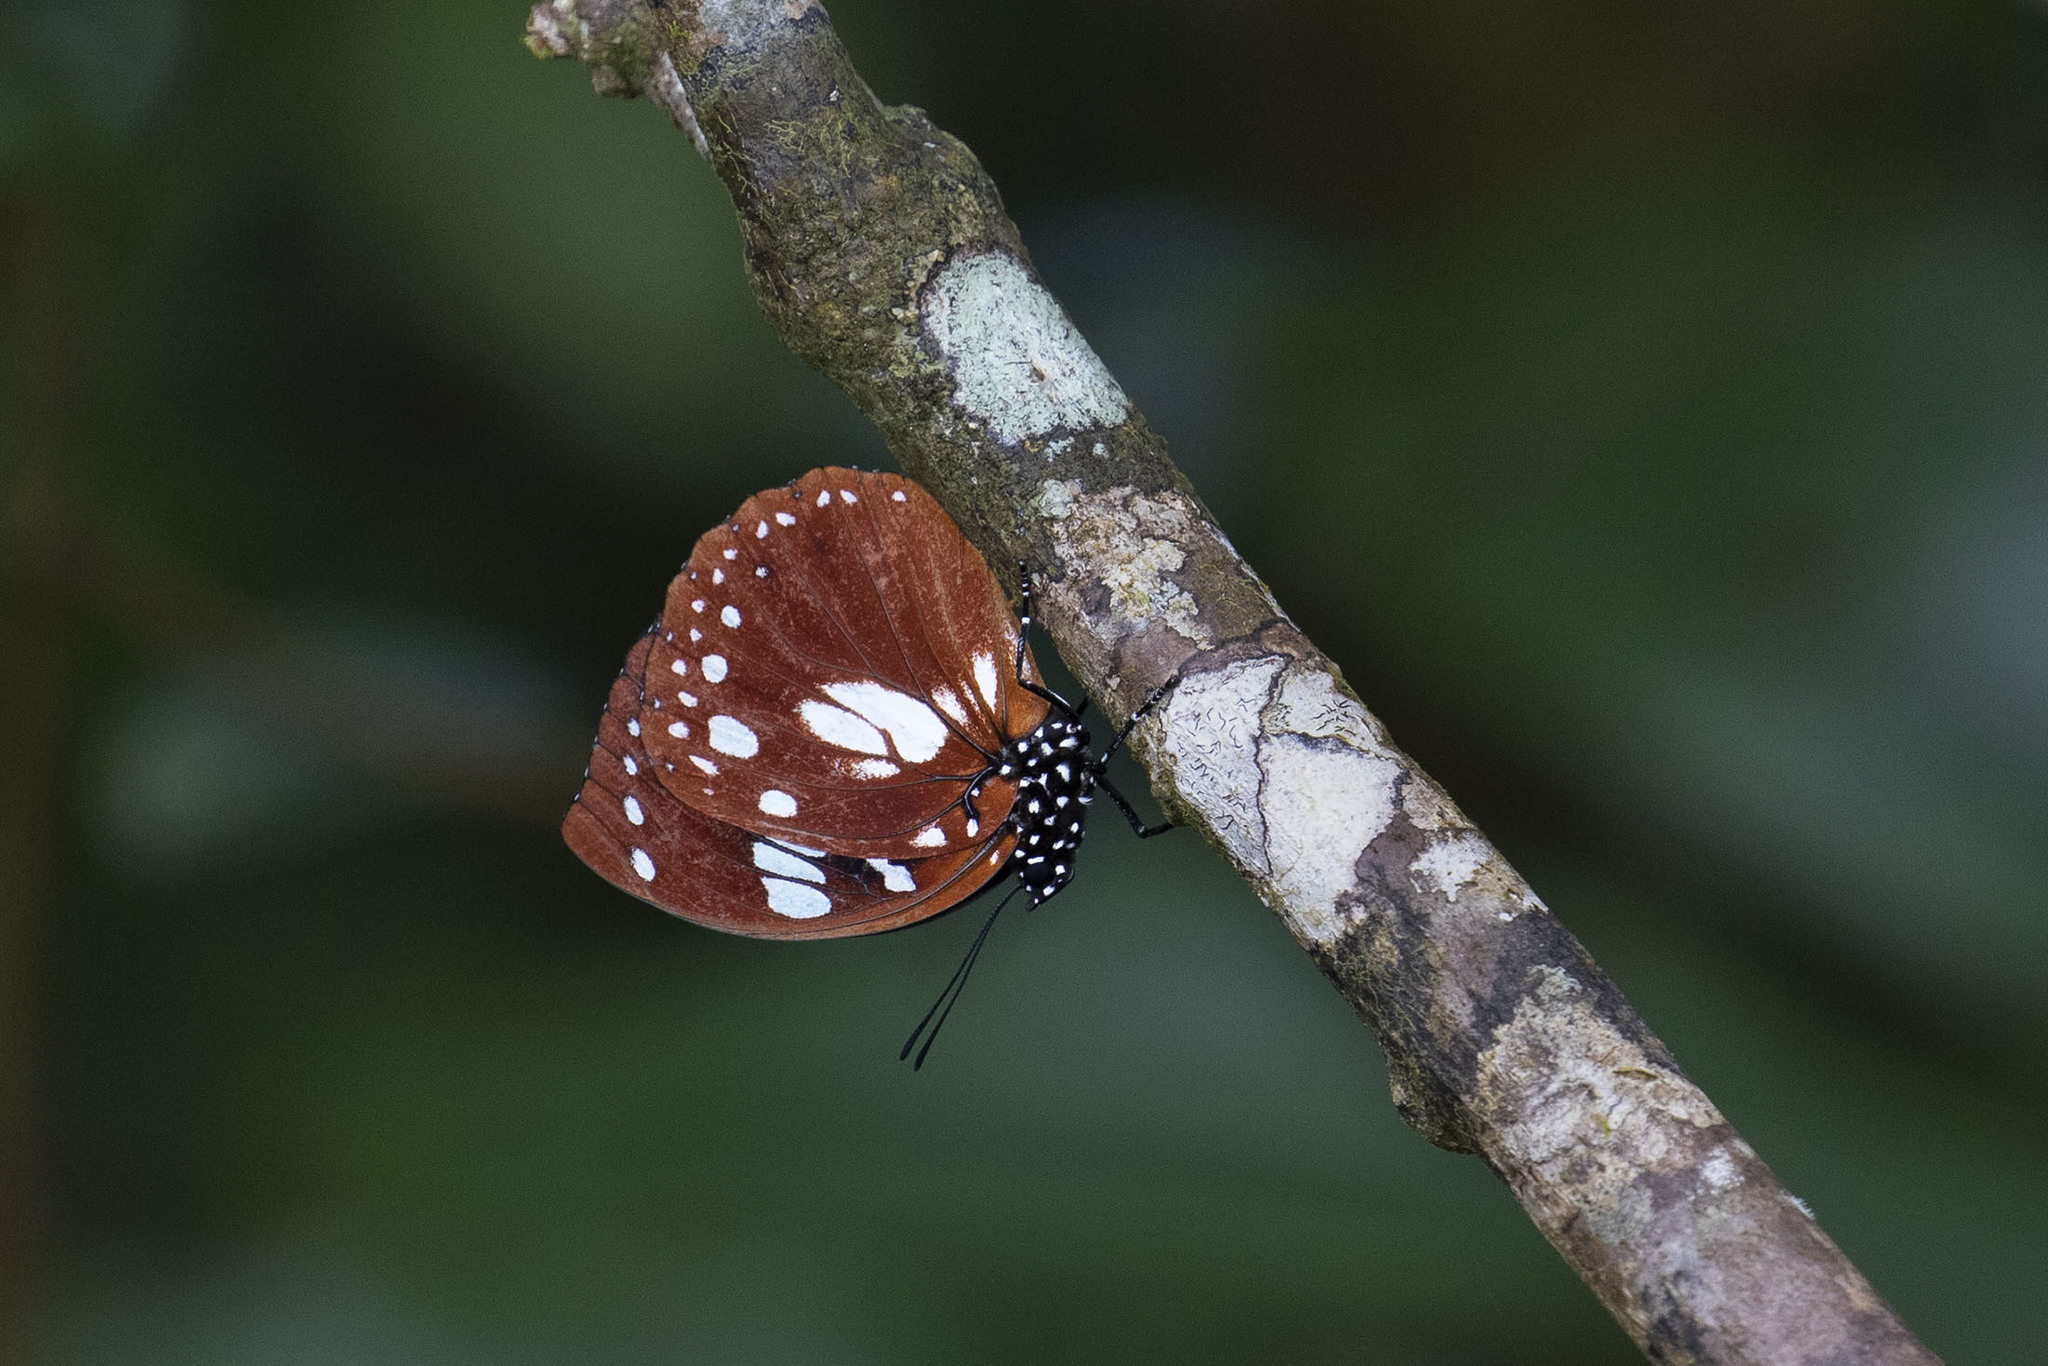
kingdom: Animalia
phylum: Arthropoda
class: Insecta
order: Lepidoptera
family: Nymphalidae
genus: Charaxes
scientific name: Charaxes
